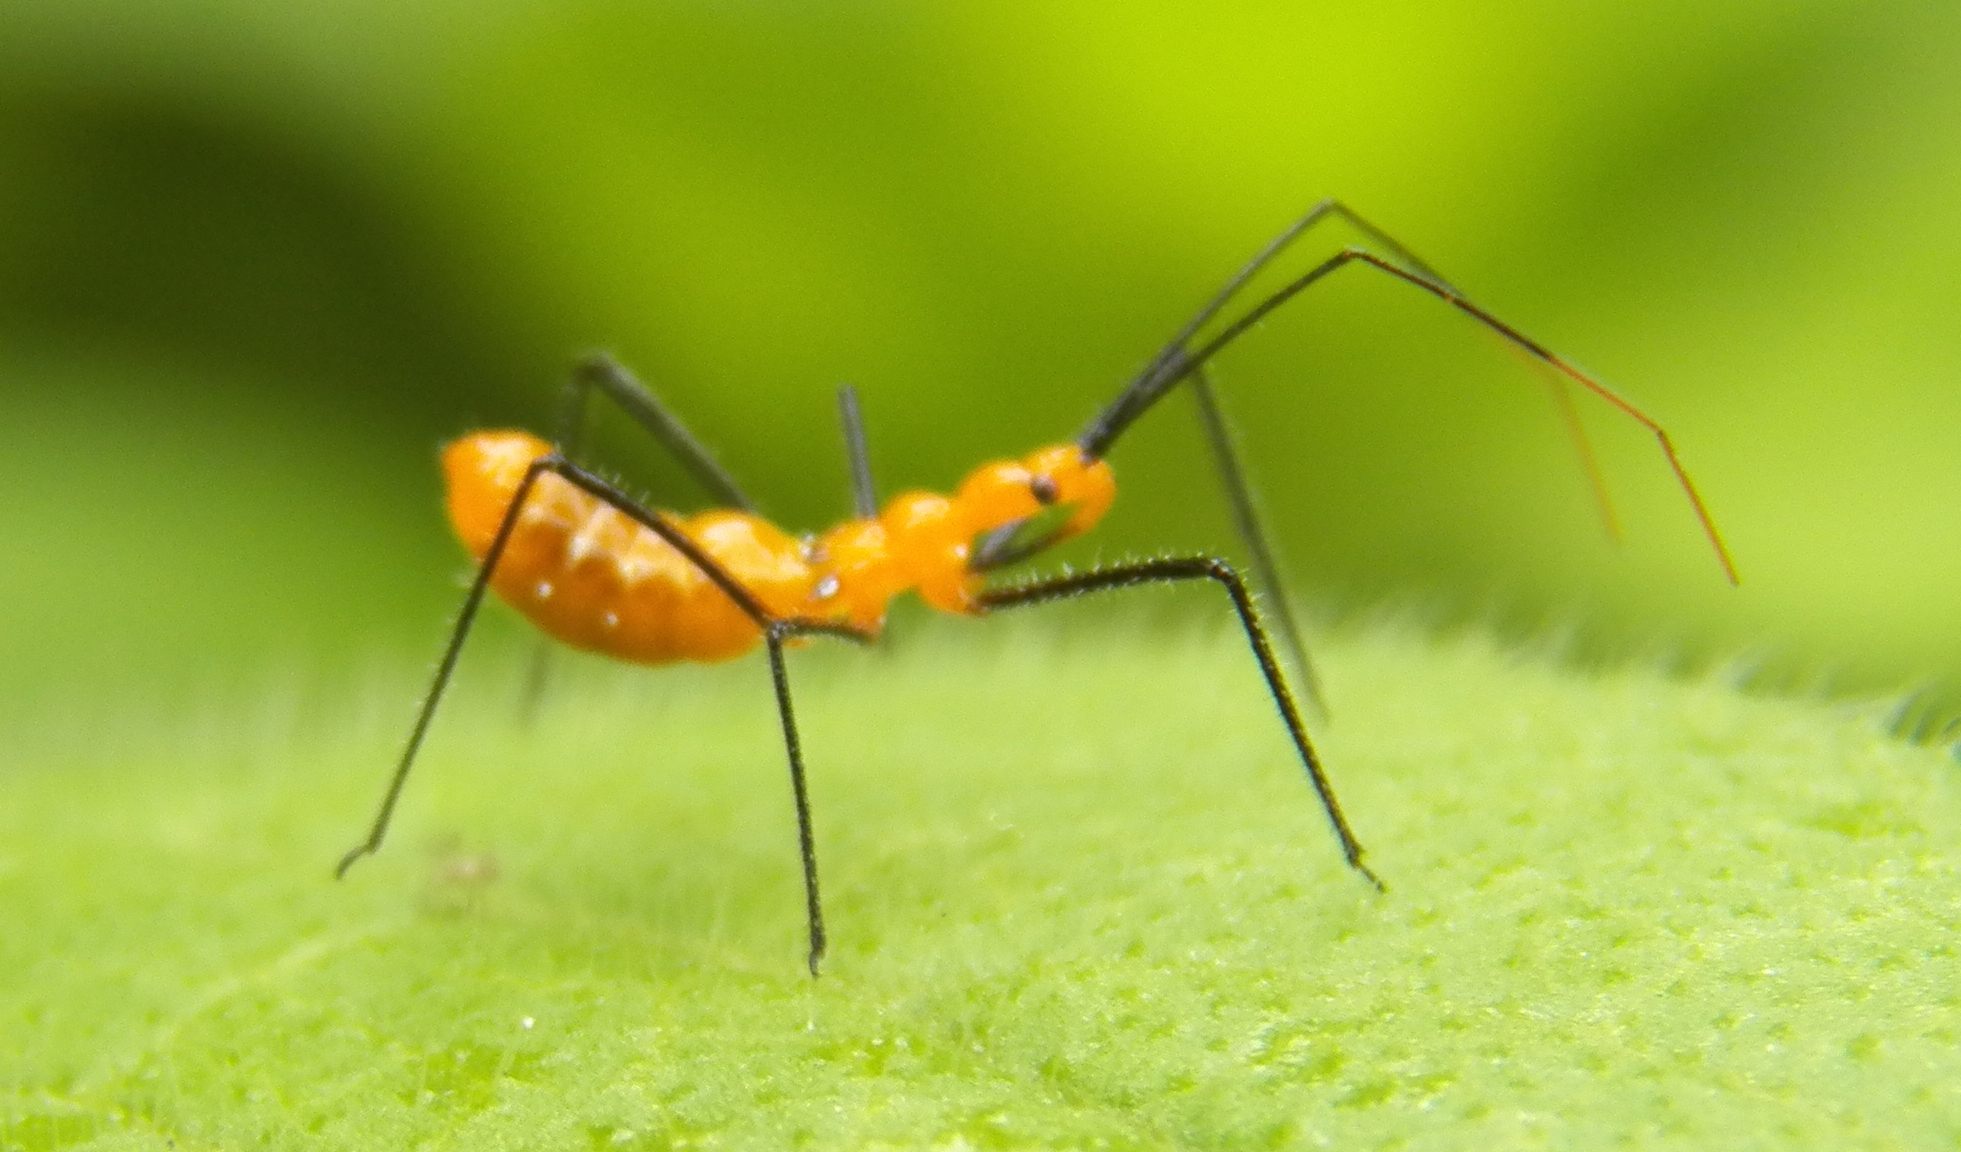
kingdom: Animalia
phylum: Arthropoda
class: Insecta
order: Hemiptera
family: Reduviidae
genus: Zelus
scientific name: Zelus longipes
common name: Milkweed assassin bug
